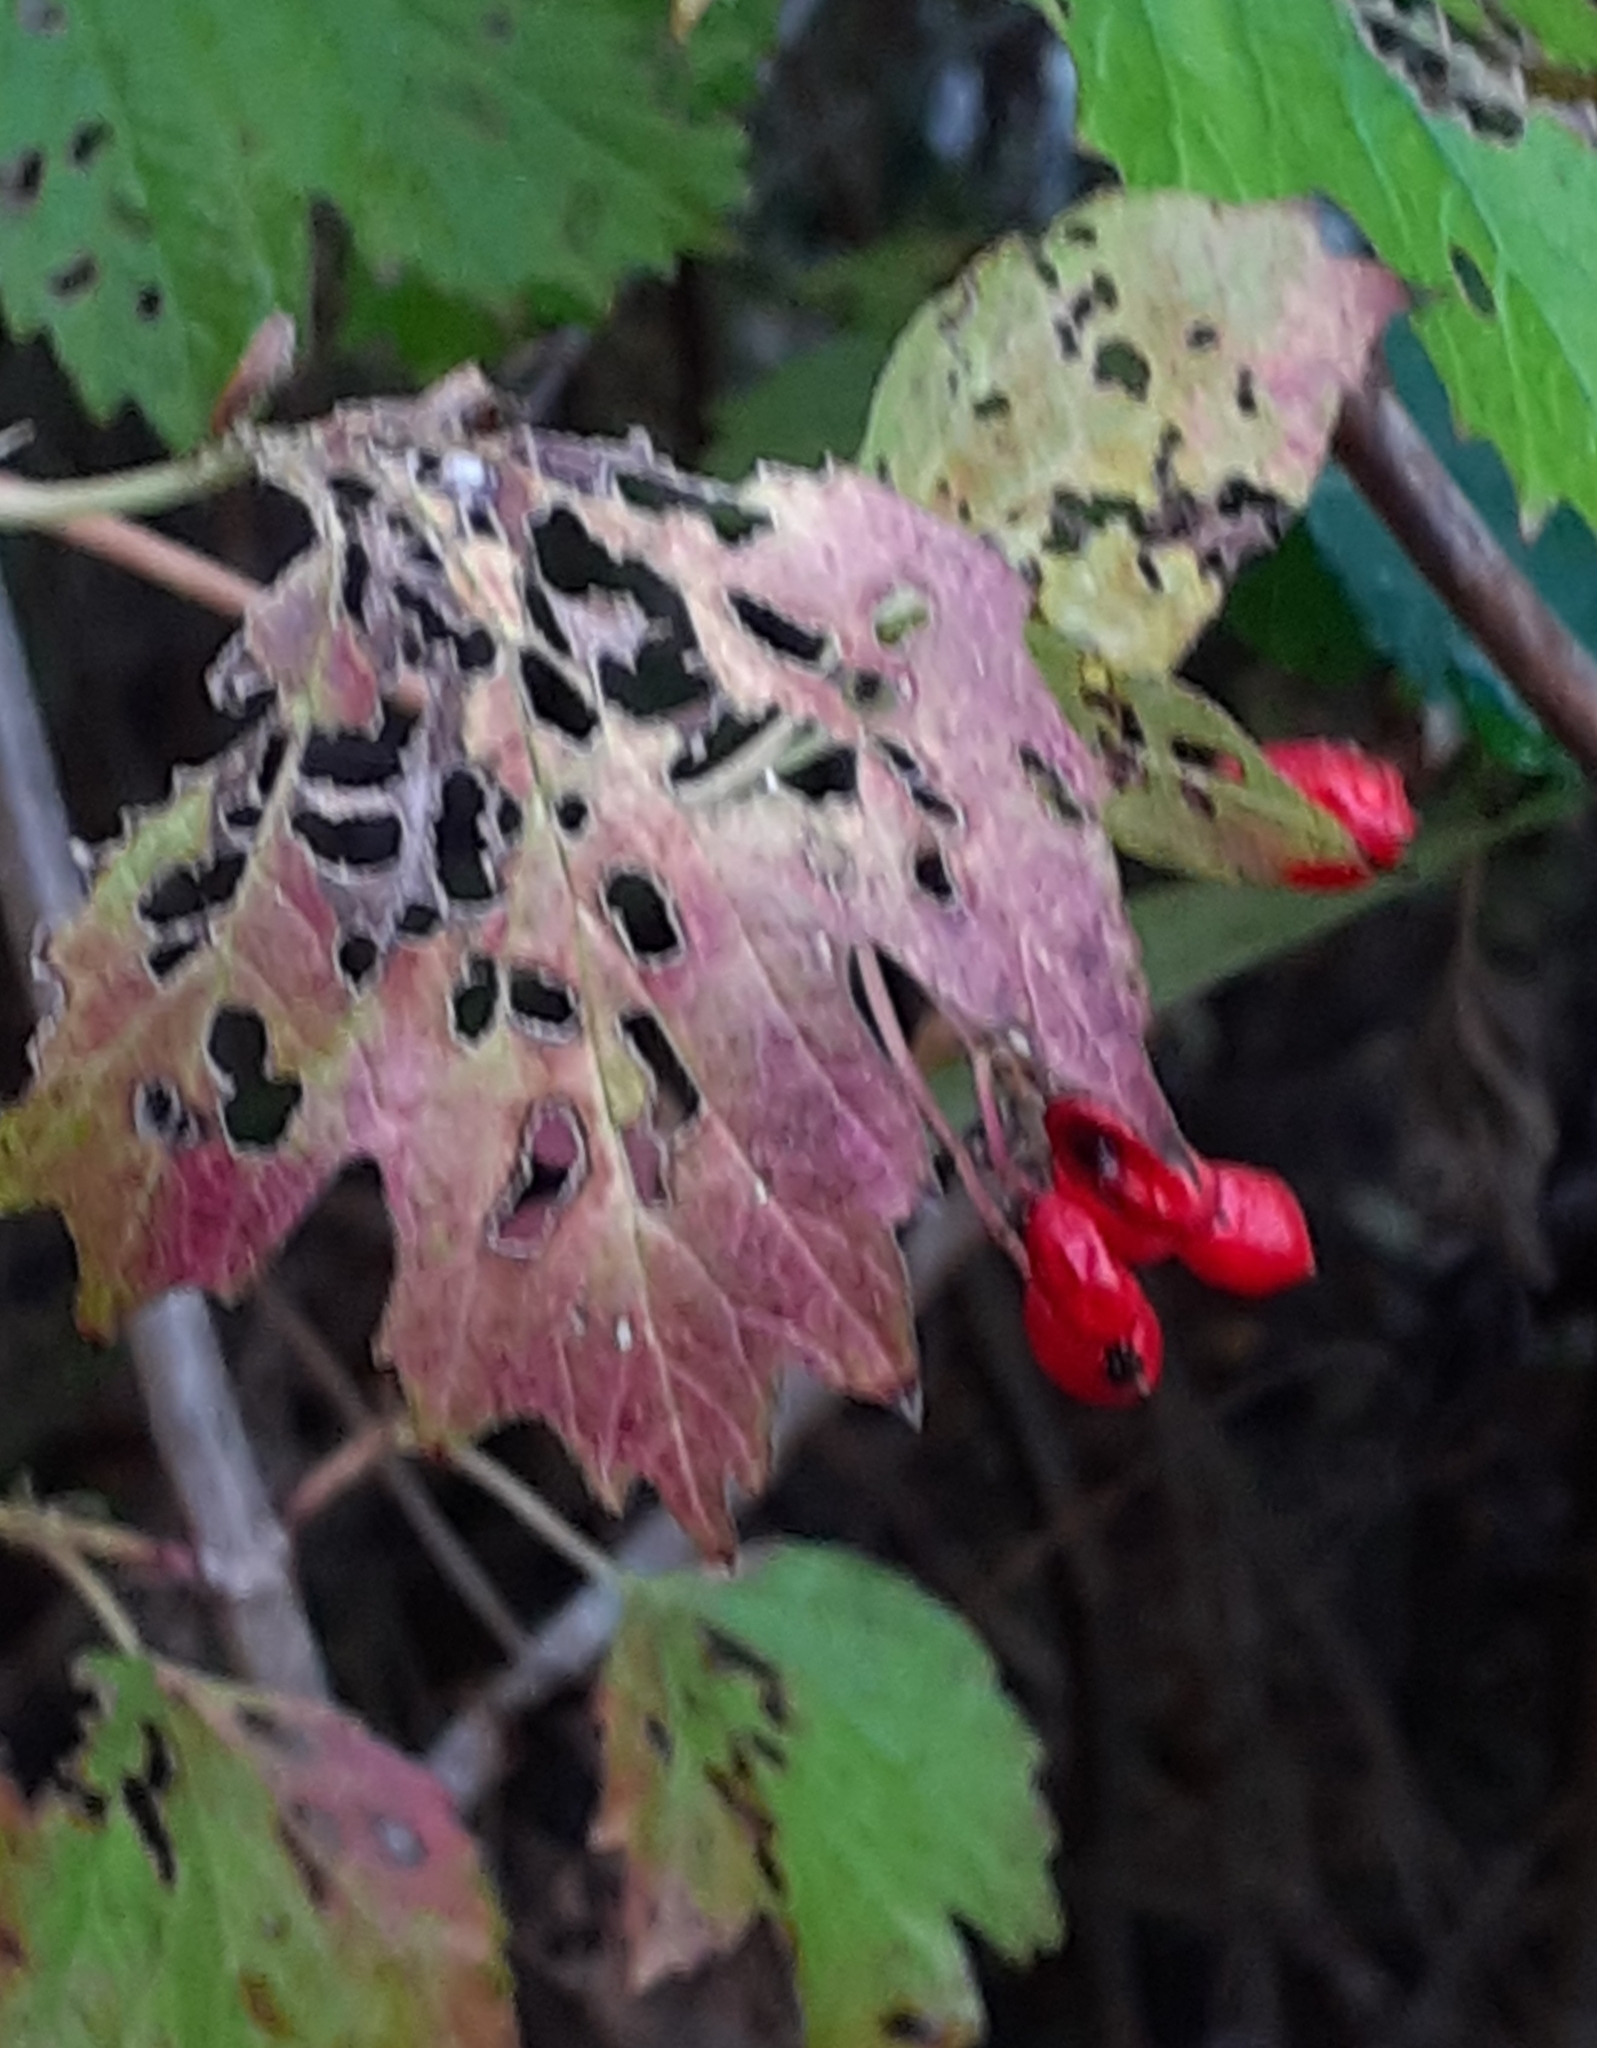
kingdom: Plantae
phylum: Tracheophyta
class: Magnoliopsida
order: Dipsacales
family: Viburnaceae
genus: Viburnum
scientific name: Viburnum opulus
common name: Guelder-rose
